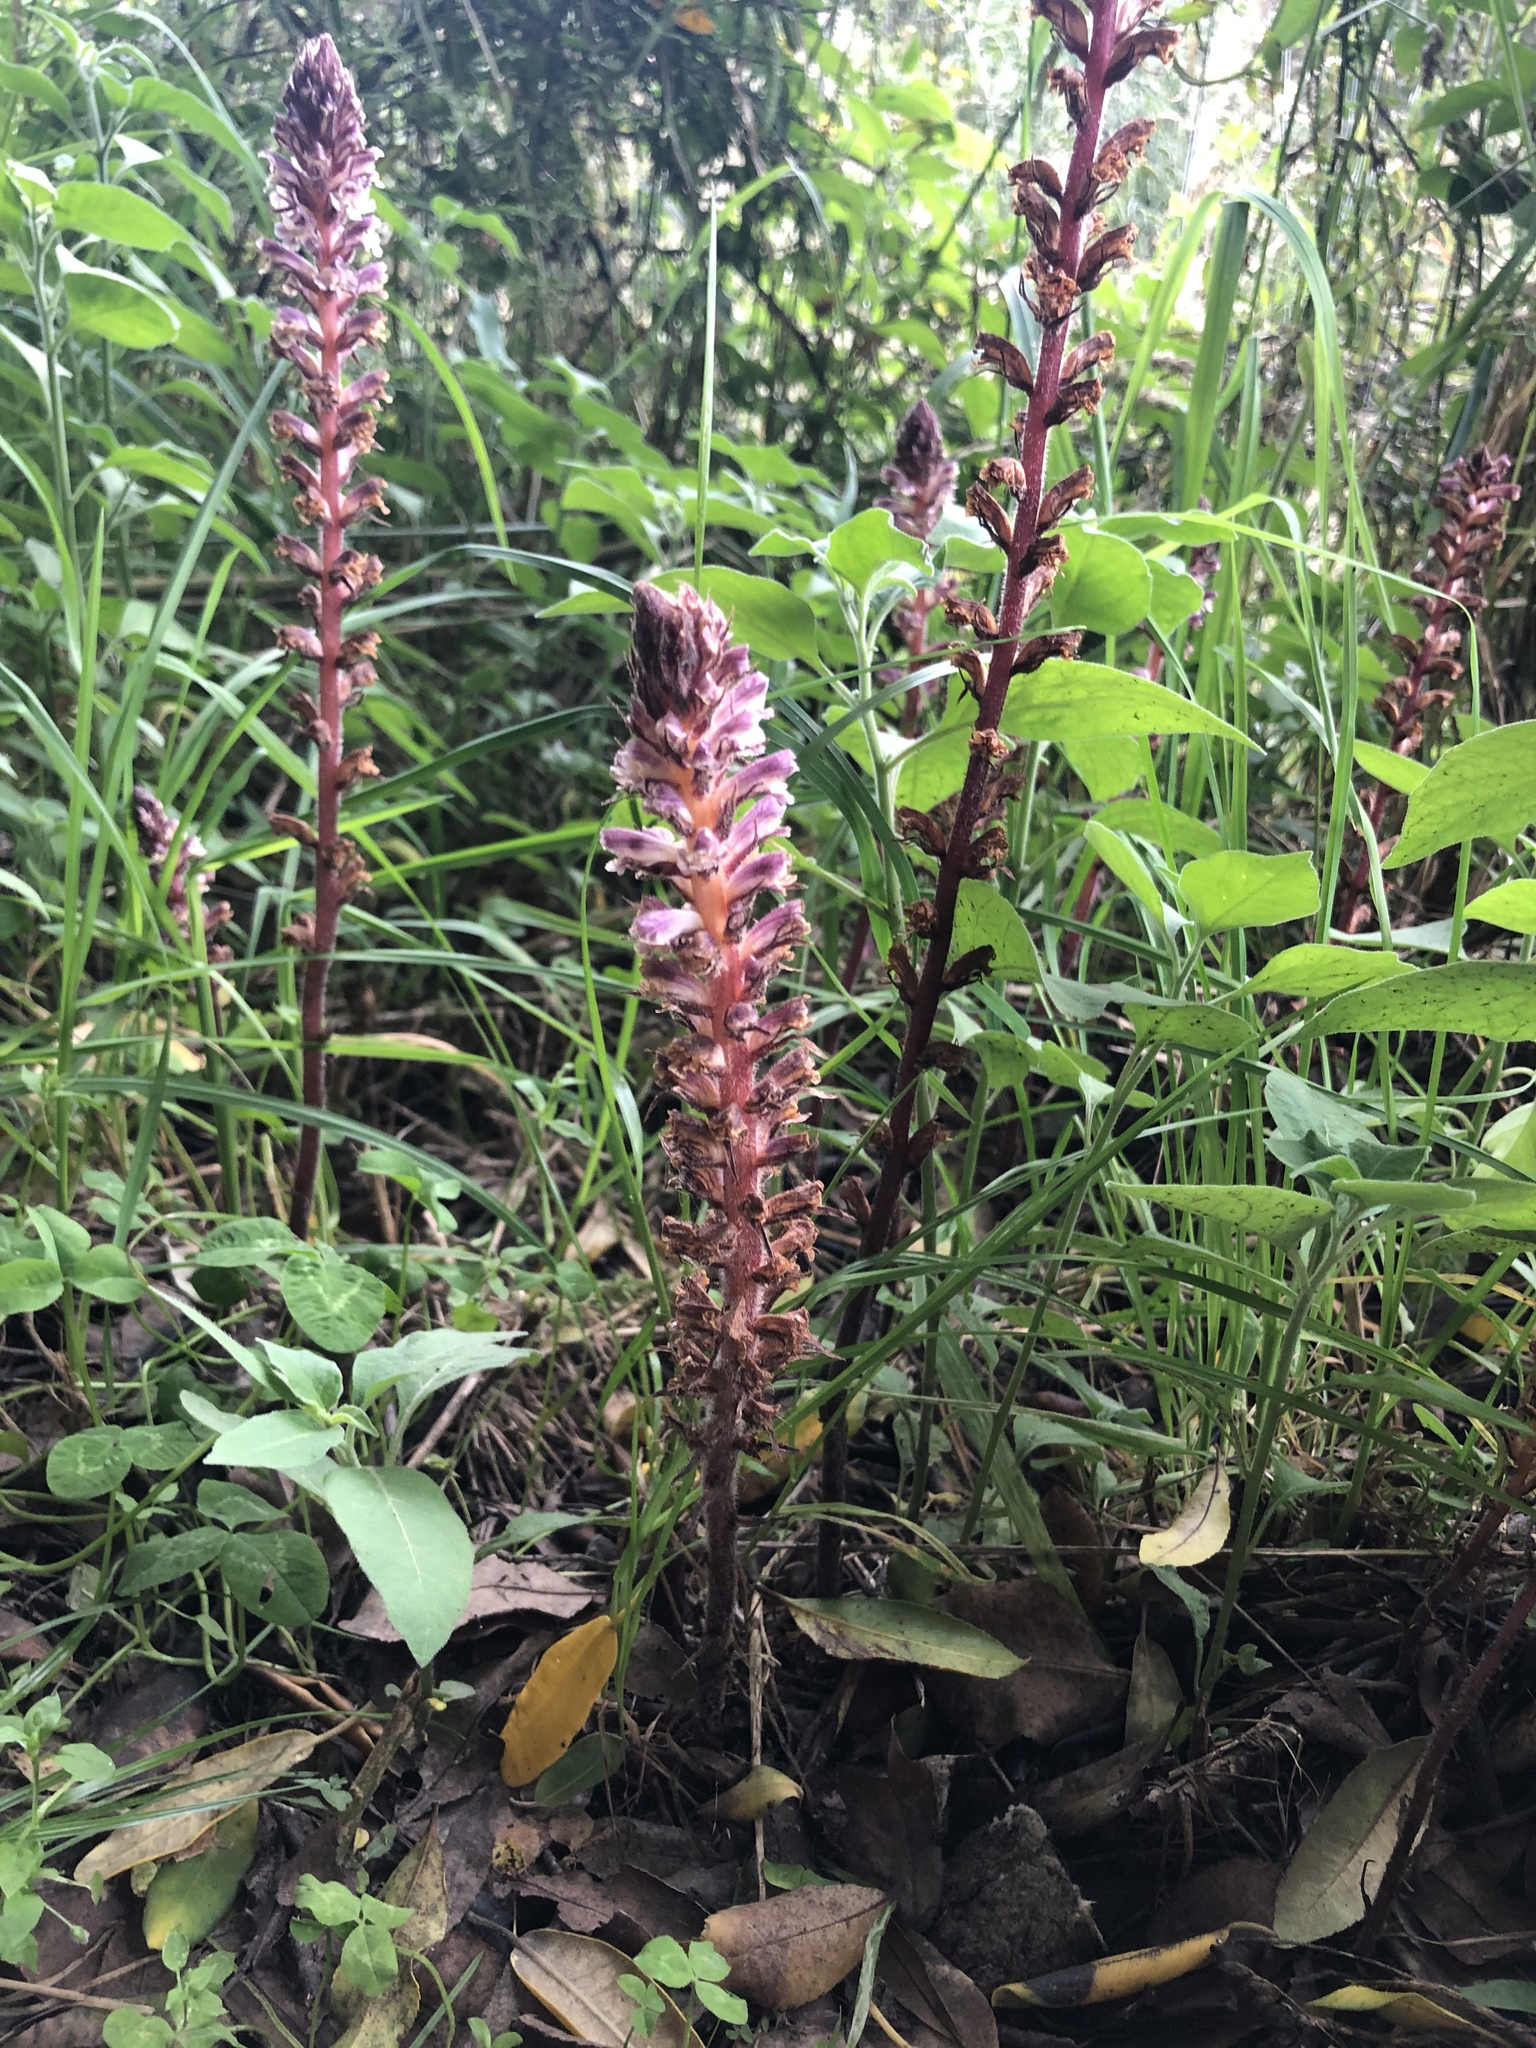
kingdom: Plantae
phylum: Tracheophyta
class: Magnoliopsida
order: Lamiales
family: Orobanchaceae
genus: Orobanche
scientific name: Orobanche minor
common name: Common broomrape
